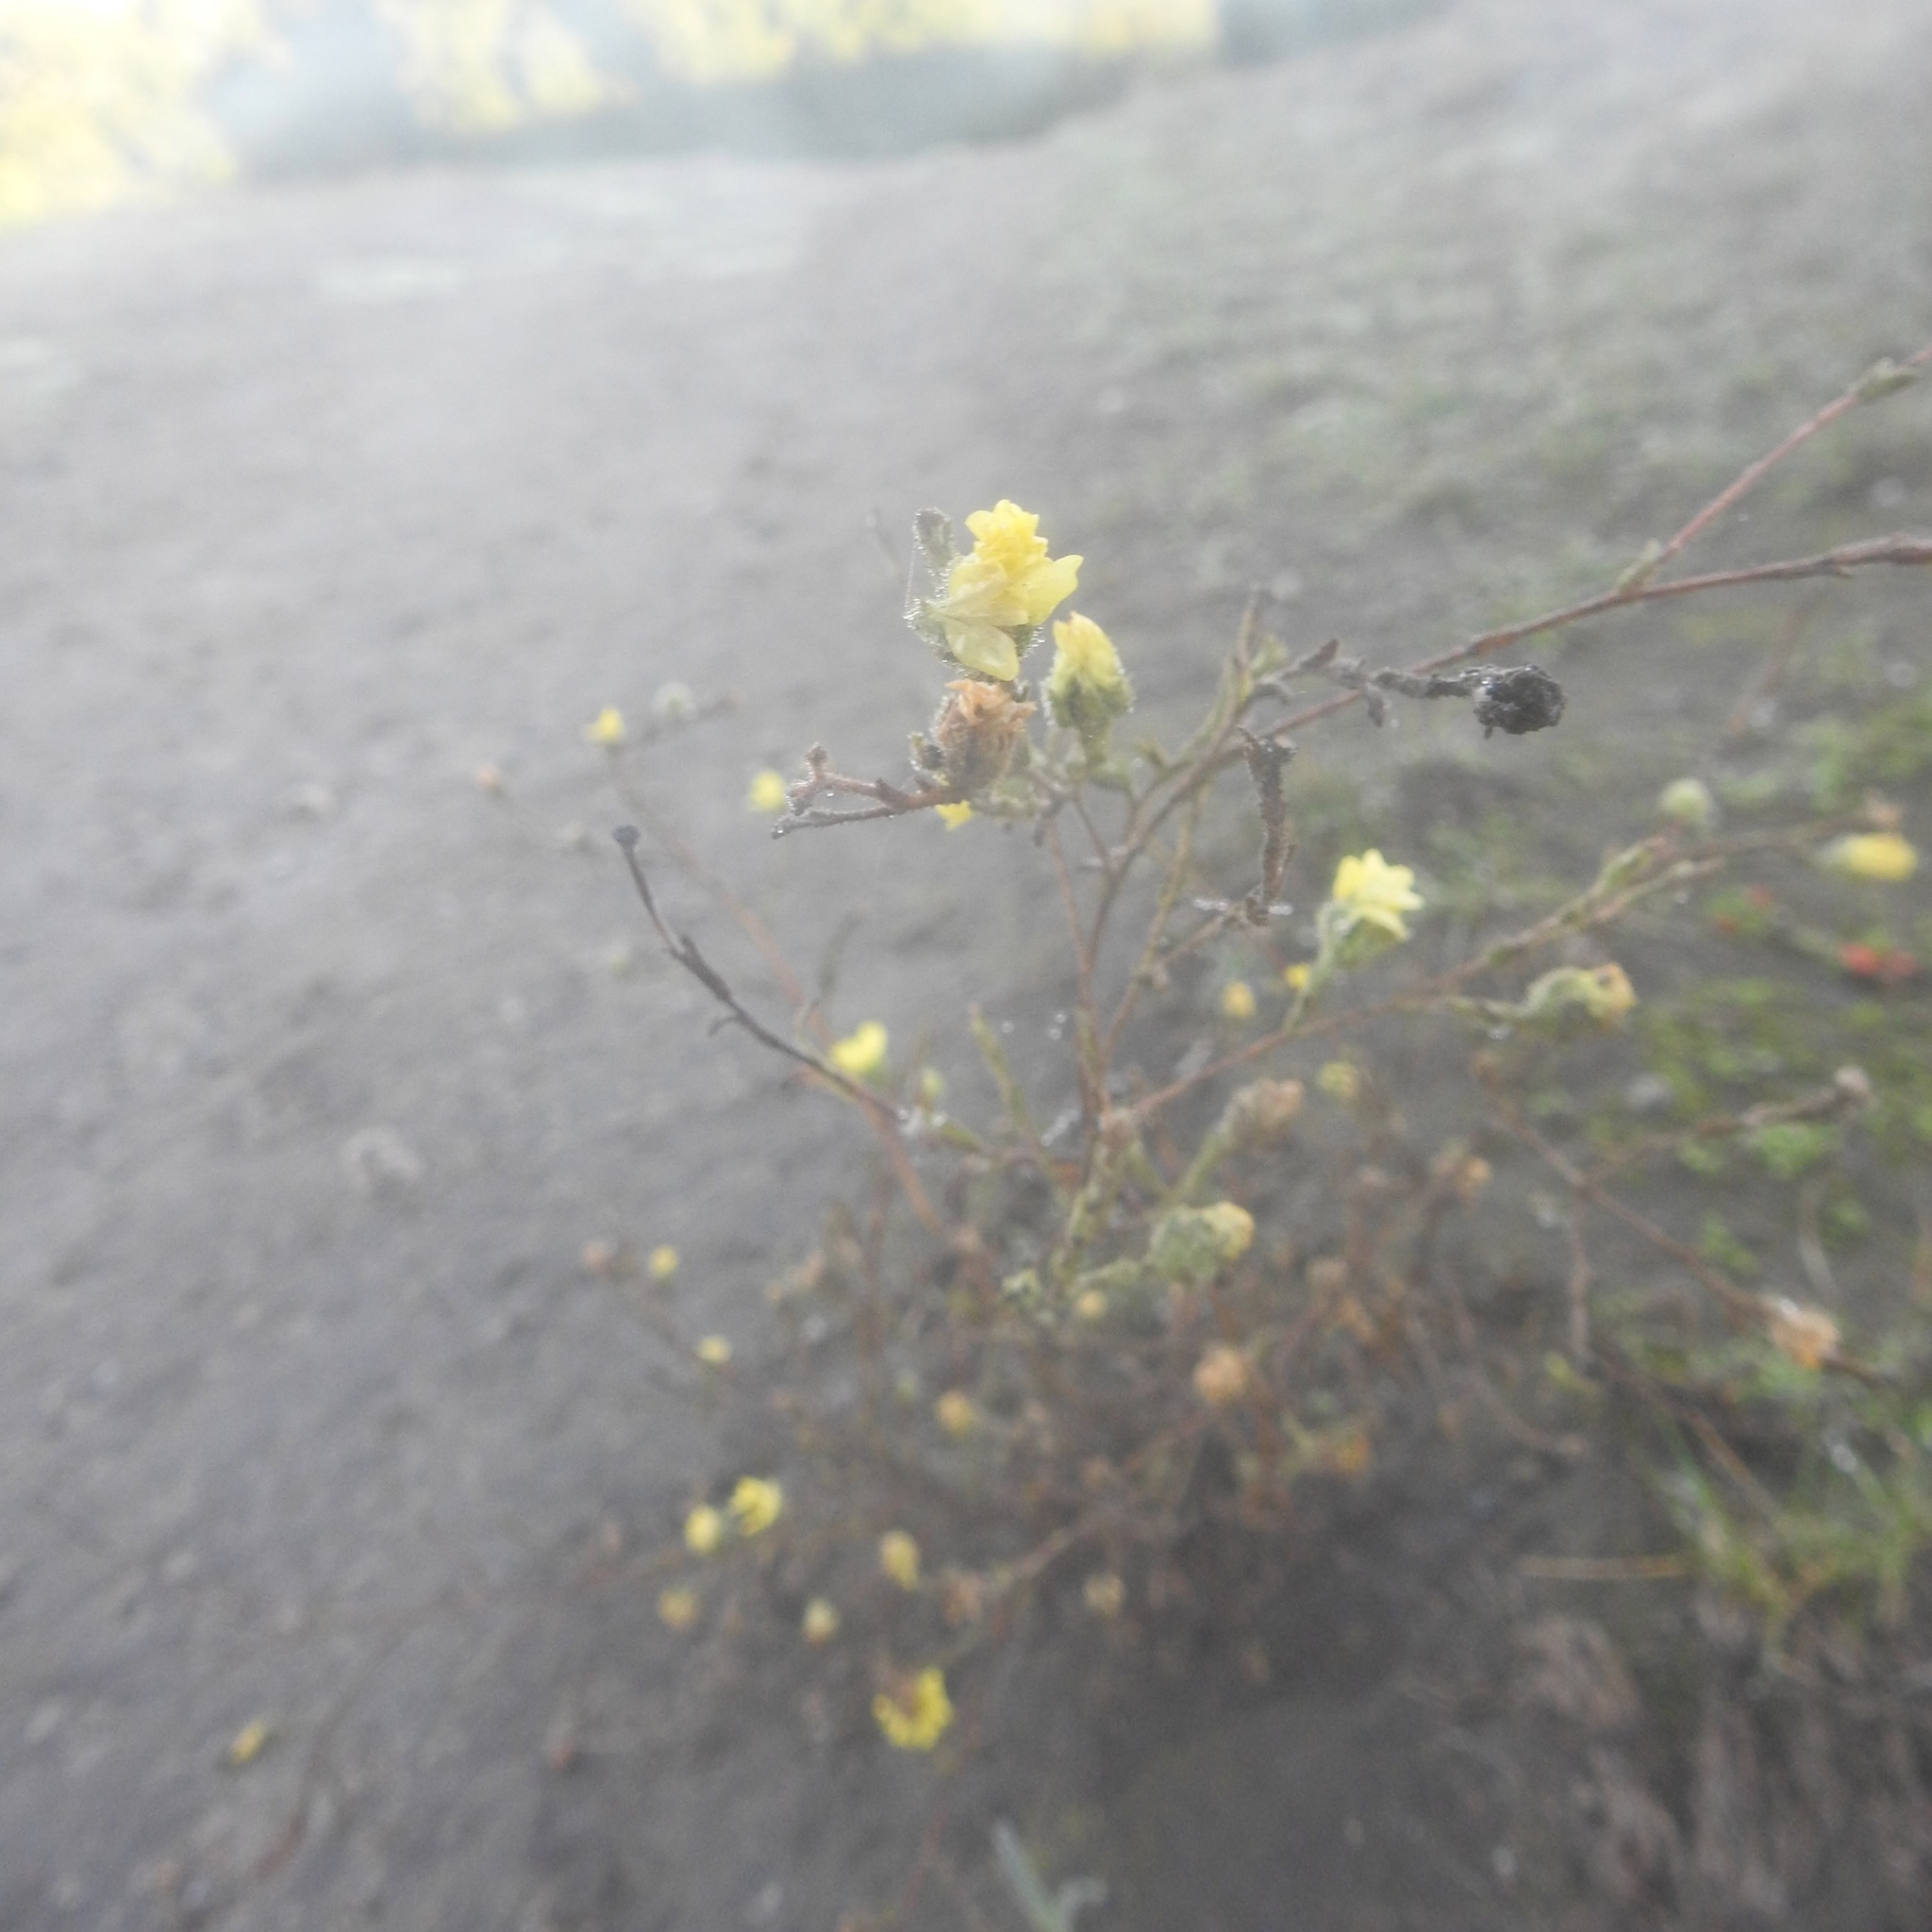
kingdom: Plantae
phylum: Tracheophyta
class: Magnoliopsida
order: Asterales
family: Asteraceae
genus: Hemizonia
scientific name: Hemizonia congesta
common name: Hayfield tarweed
